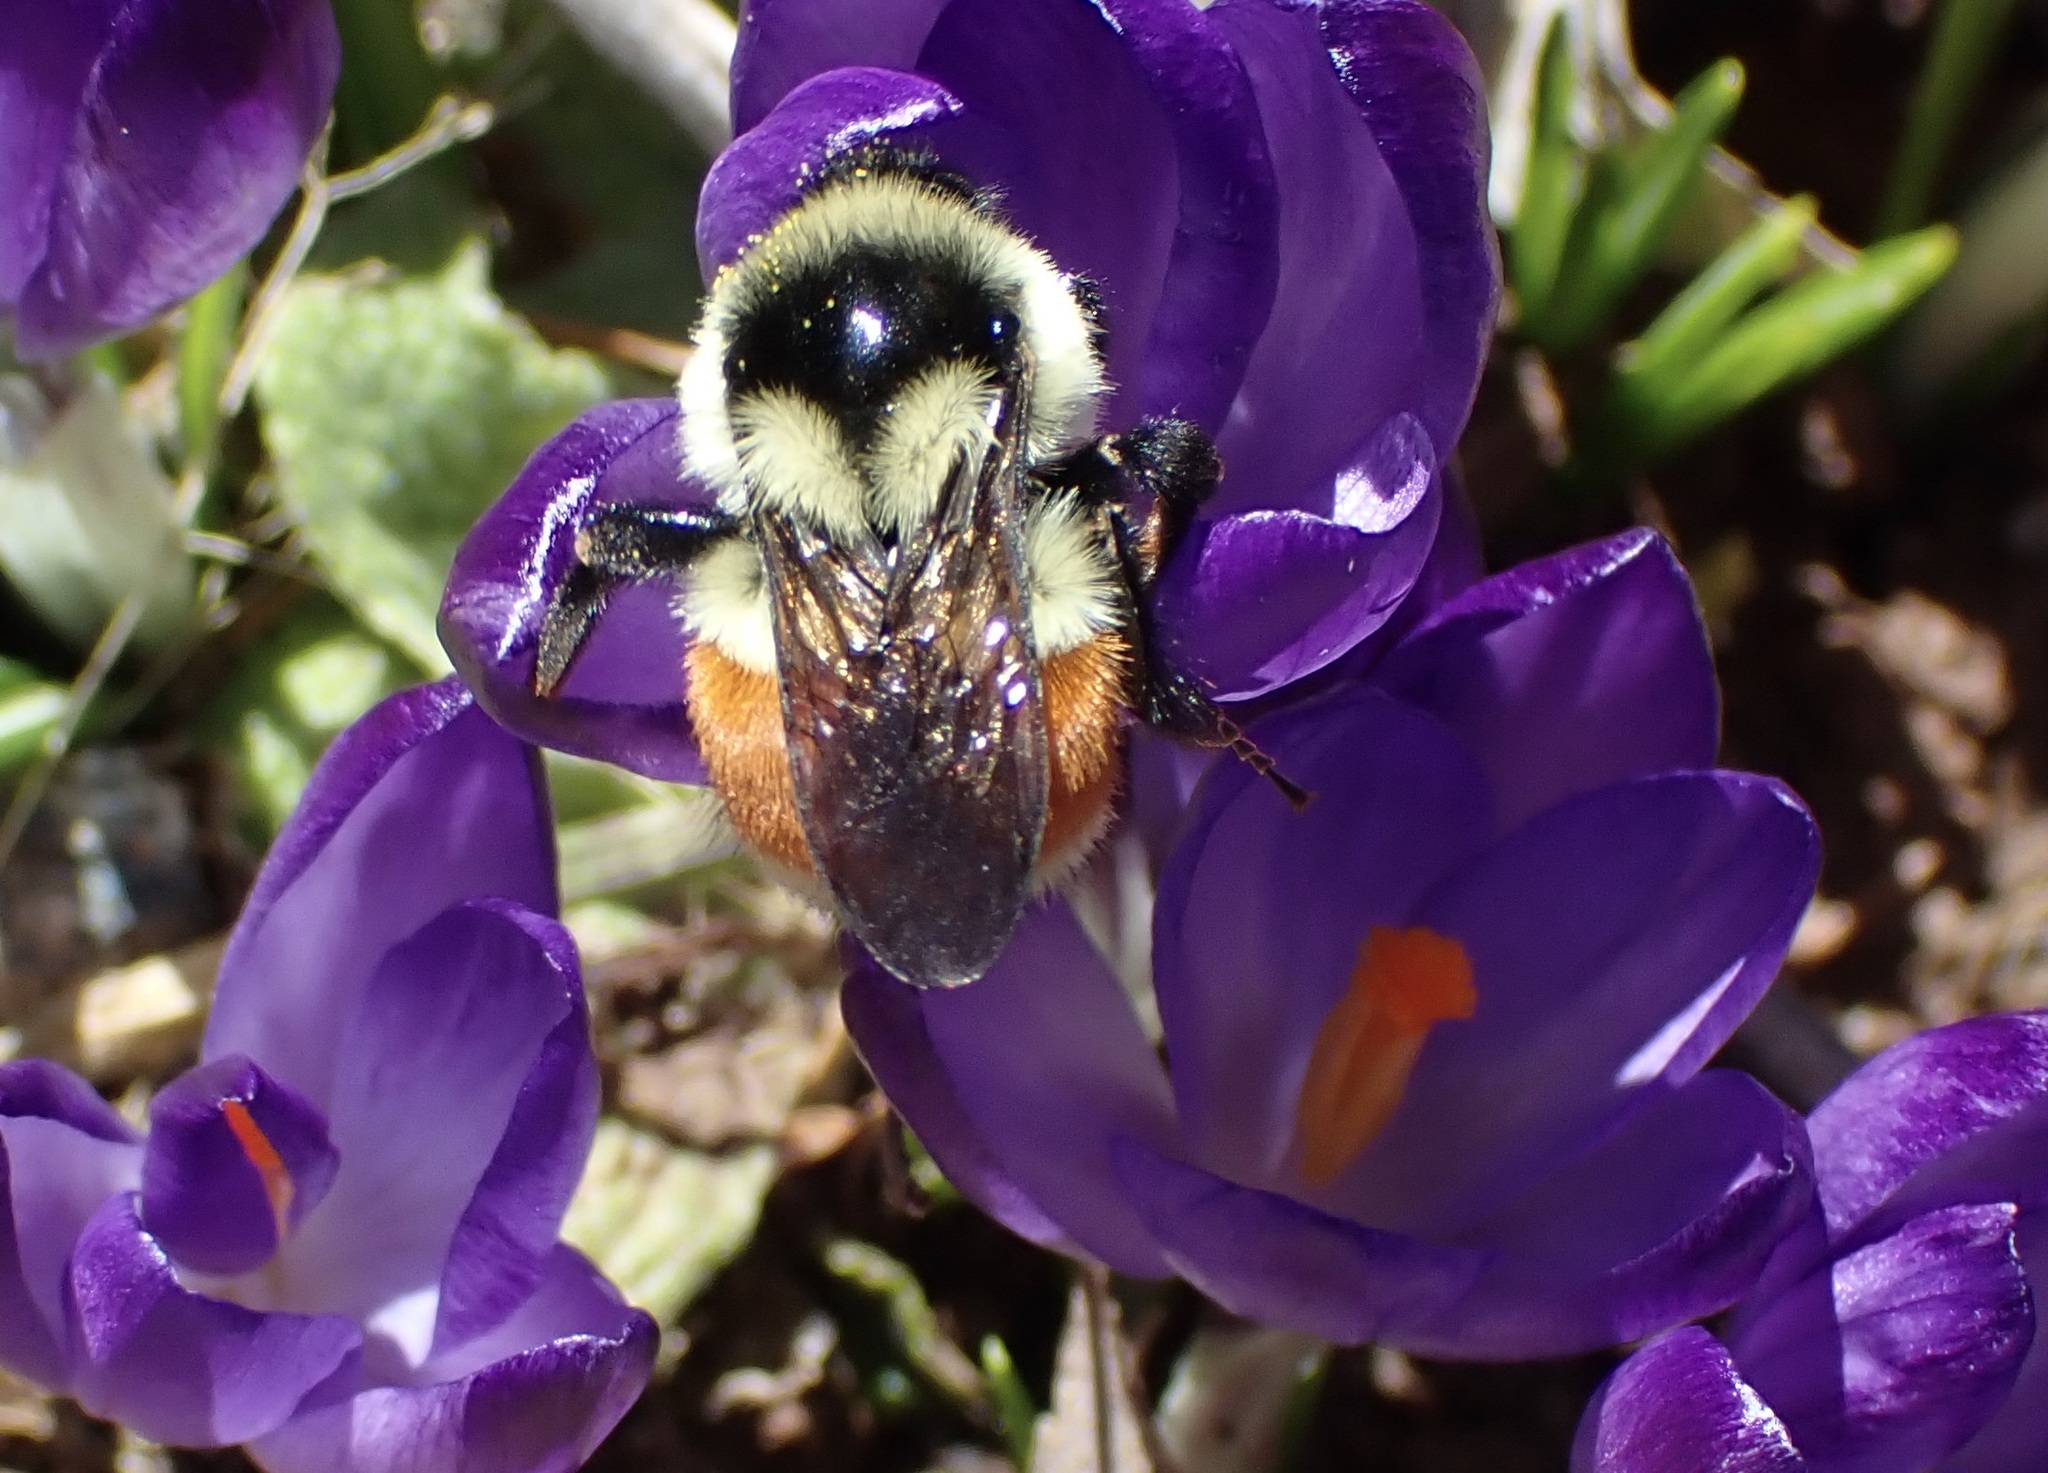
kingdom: Animalia
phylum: Arthropoda
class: Insecta
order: Hymenoptera
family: Apidae
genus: Bombus
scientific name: Bombus ternarius
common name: Tri-colored bumble bee
